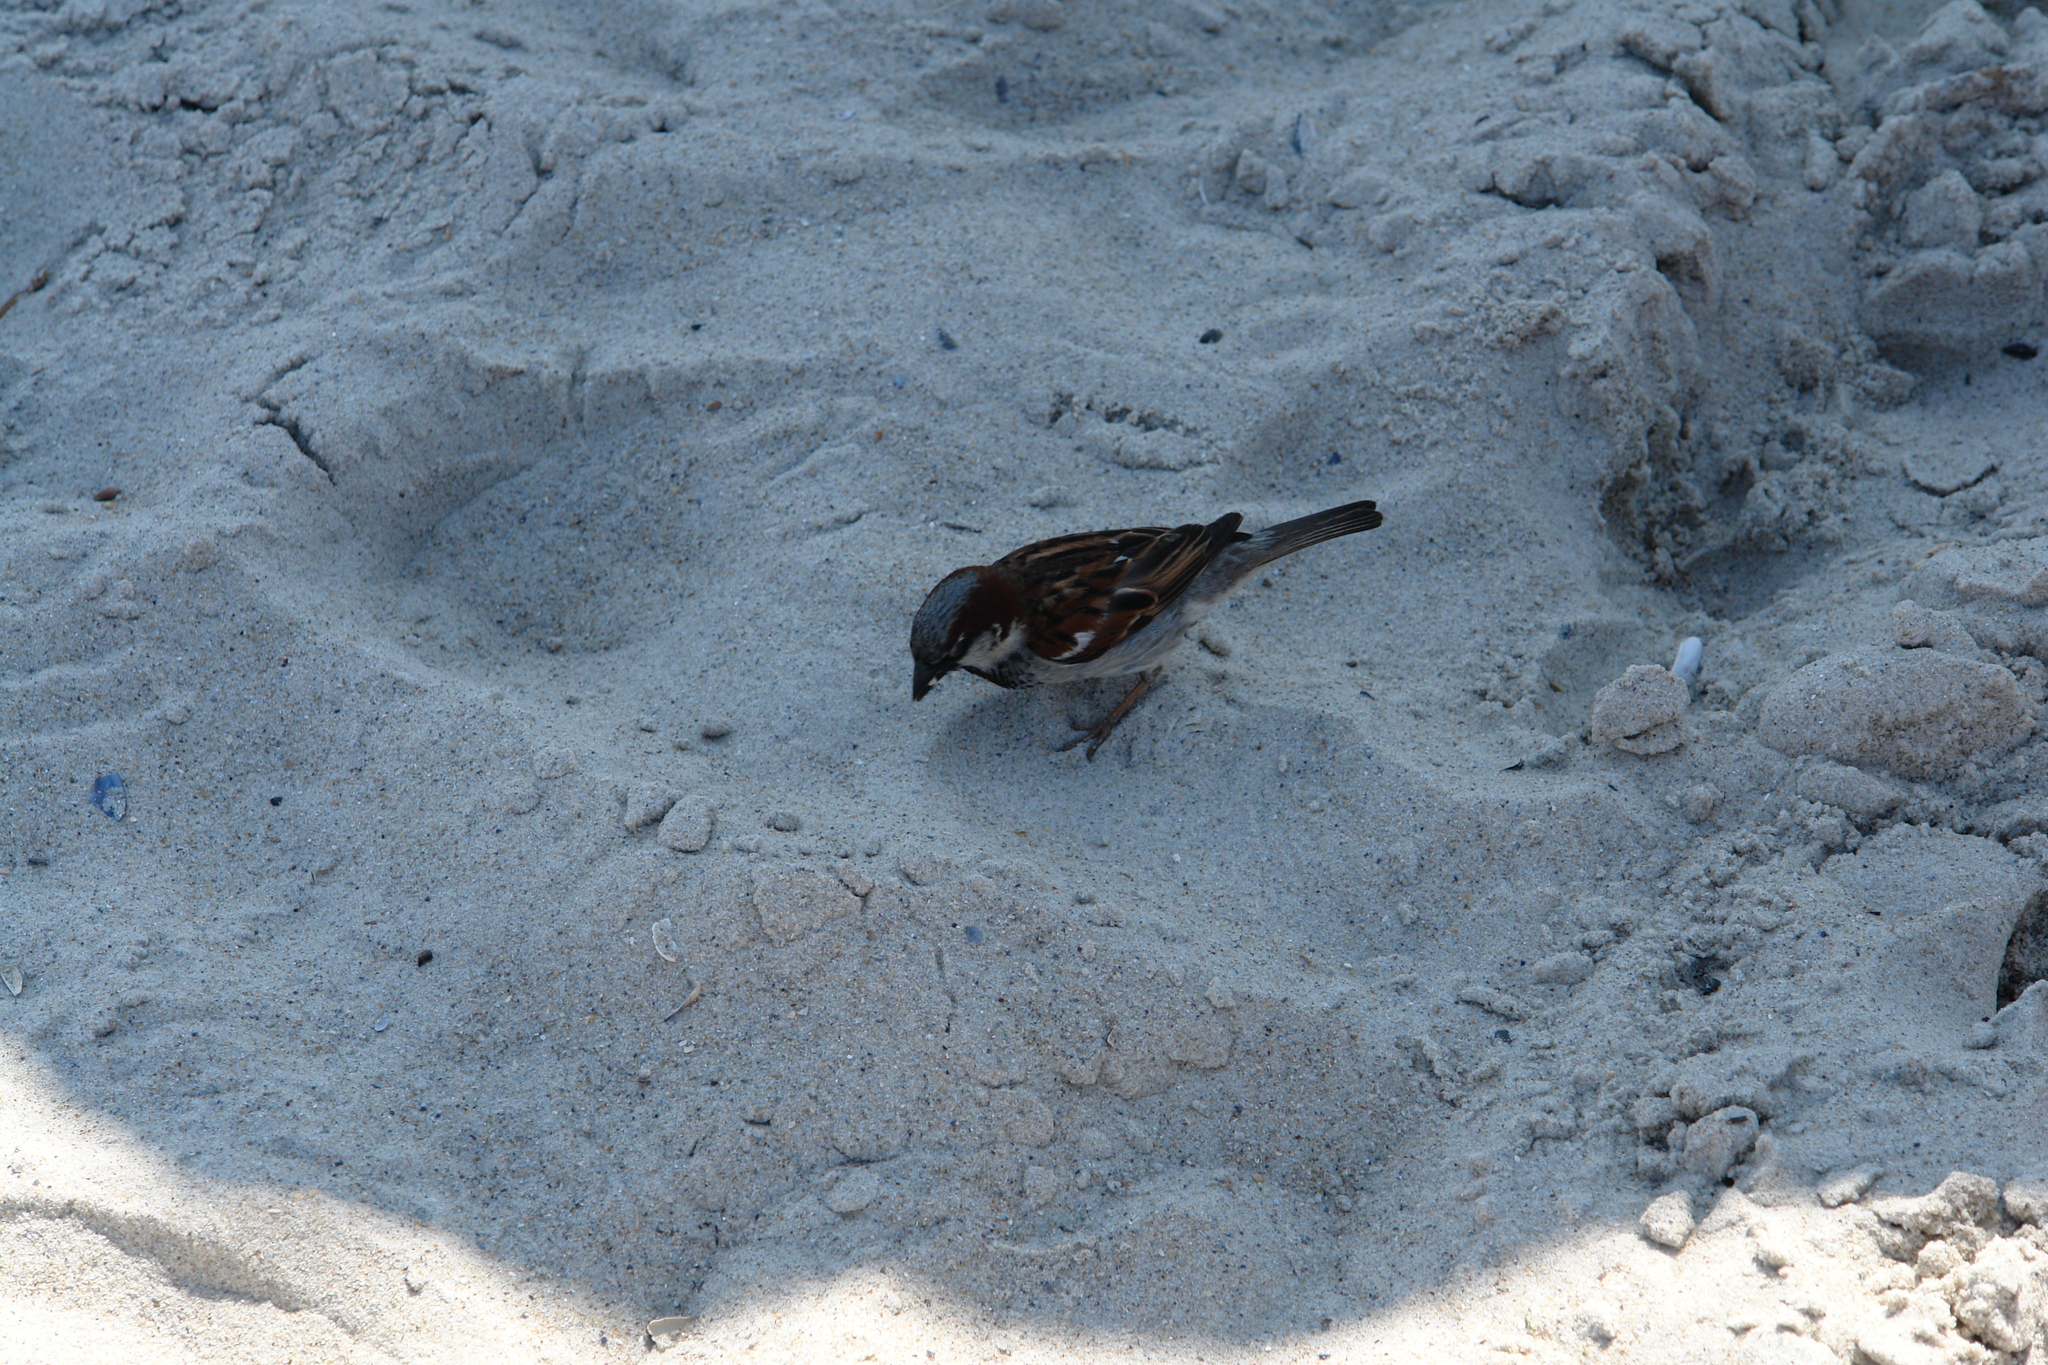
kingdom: Animalia
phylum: Chordata
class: Aves
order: Passeriformes
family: Passeridae
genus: Passer
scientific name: Passer domesticus
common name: House sparrow
